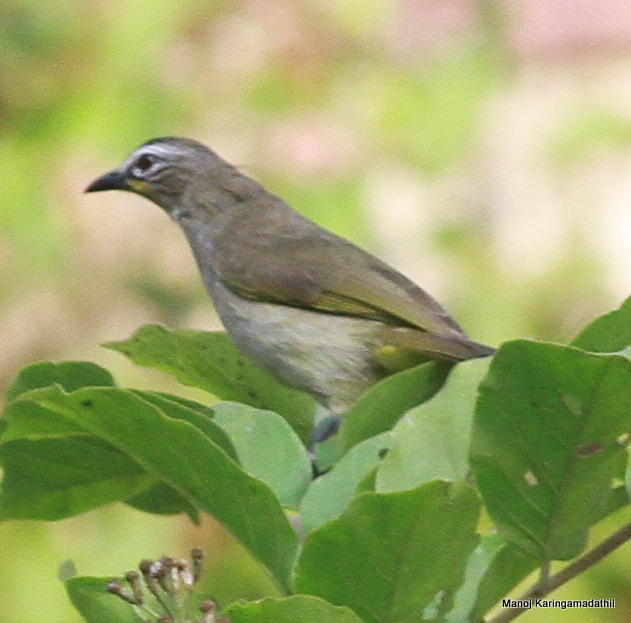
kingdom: Animalia
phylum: Chordata
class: Aves
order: Passeriformes
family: Pycnonotidae
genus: Pycnonotus
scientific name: Pycnonotus luteolus
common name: White-browed bulbul
